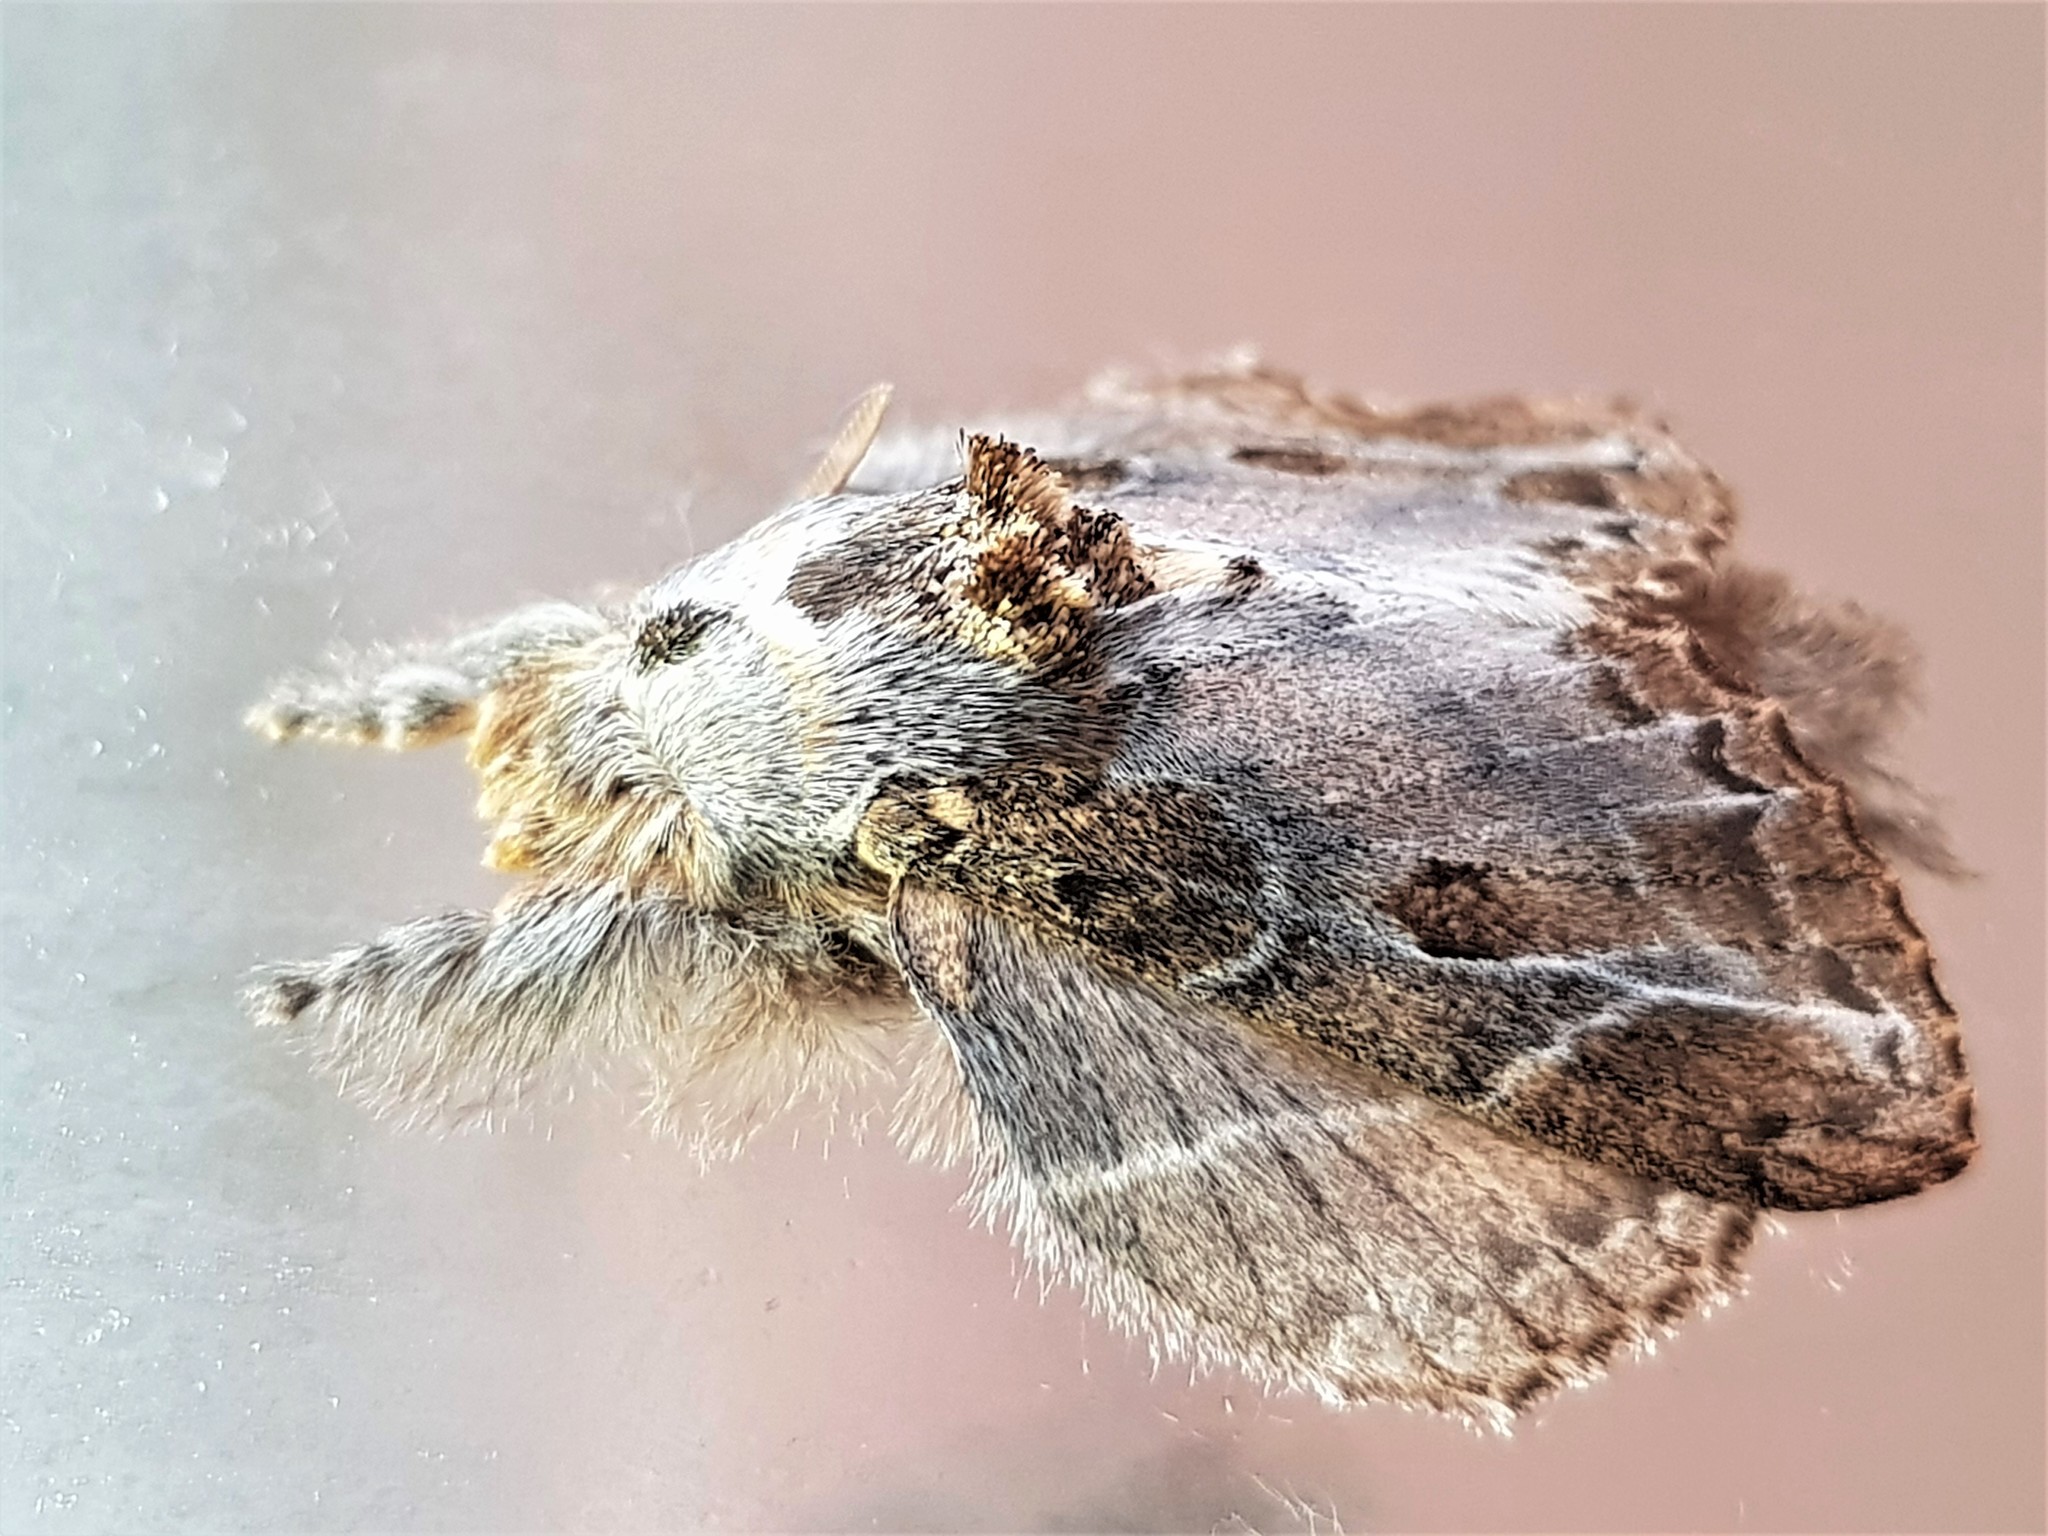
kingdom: Animalia
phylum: Arthropoda
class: Insecta
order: Lepidoptera
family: Lasiocampidae
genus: Euglyphis
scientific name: Euglyphis laronia
